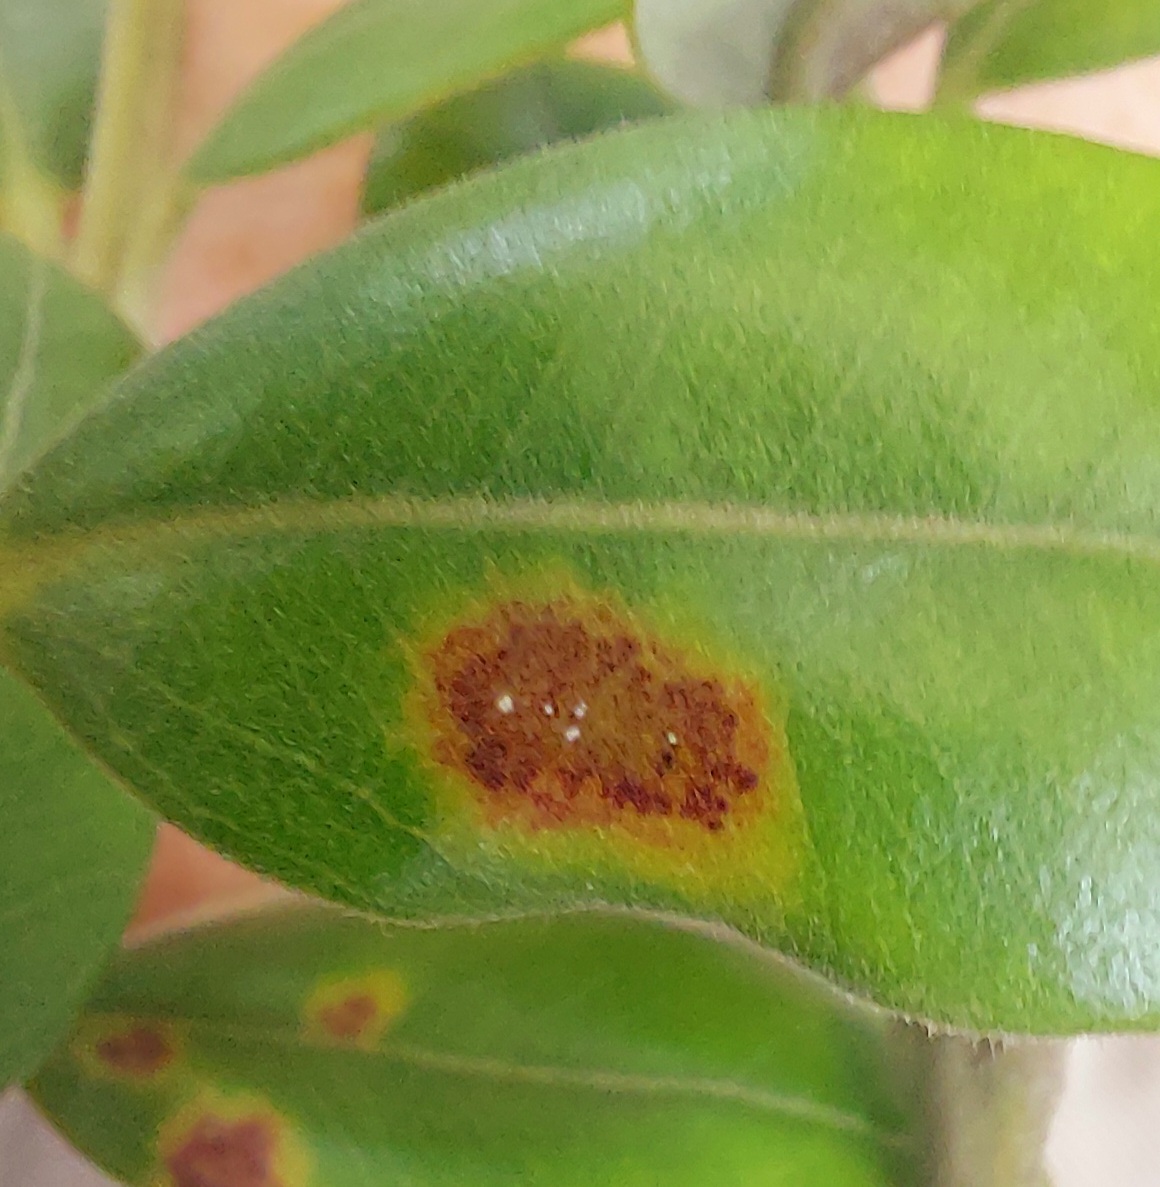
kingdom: Fungi
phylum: Basidiomycota
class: Pucciniomycetes
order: Pucciniales
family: Sphaerophragmiaceae
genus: Austropuccinia
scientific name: Austropuccinia psidii
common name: Myrtle rust
